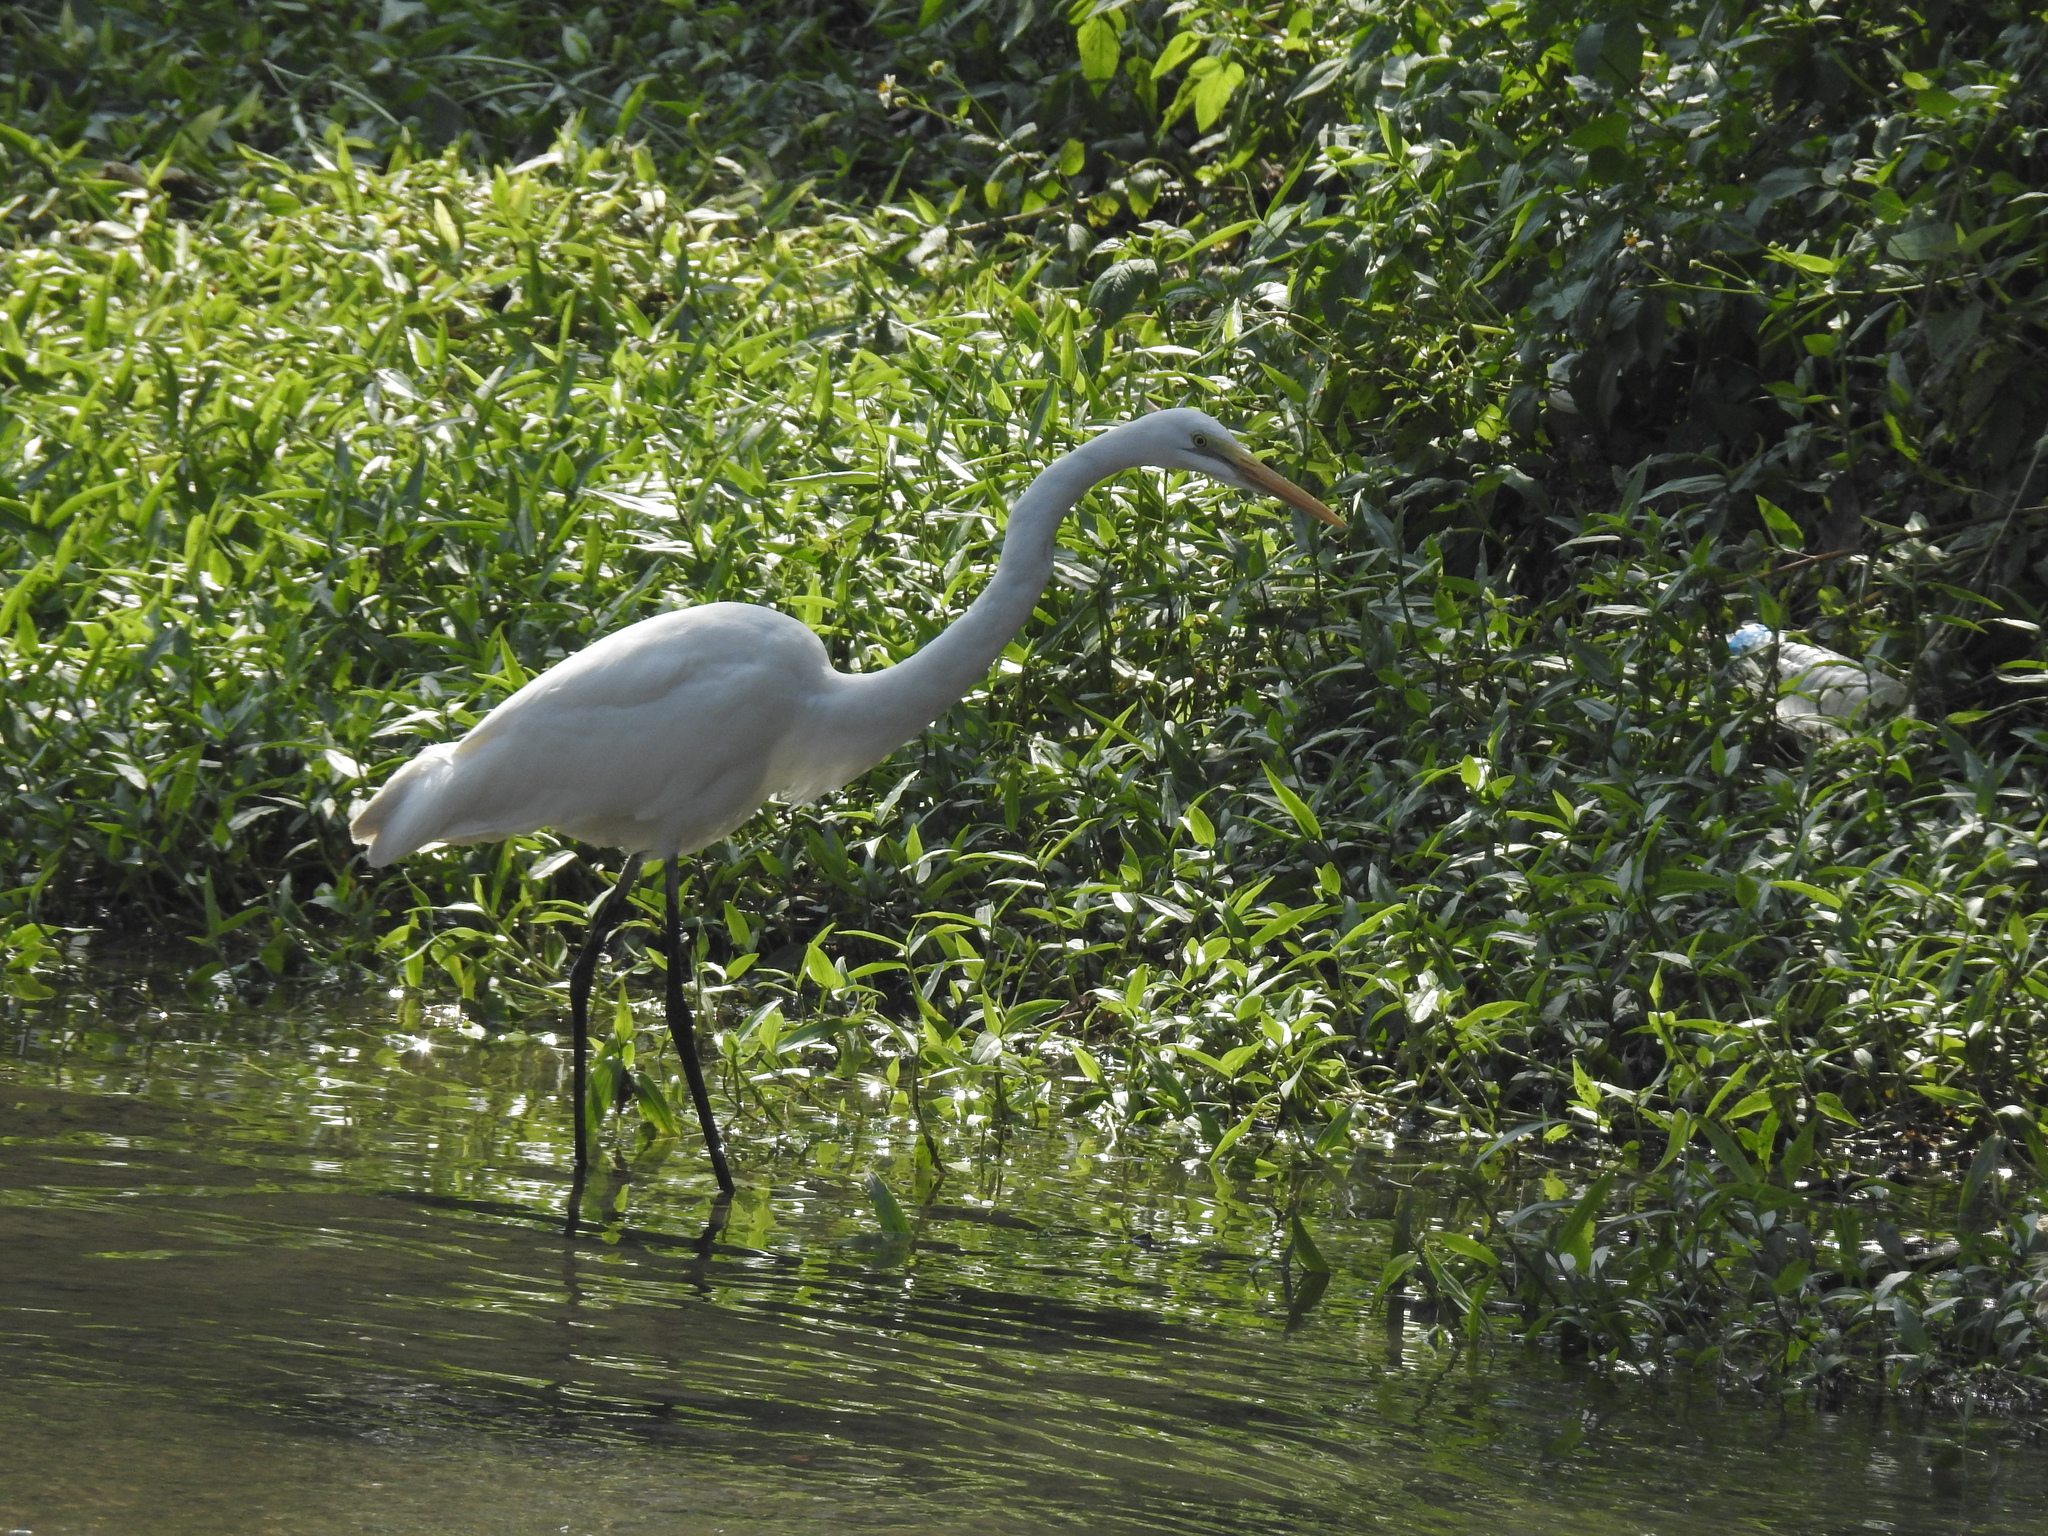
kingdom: Animalia
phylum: Chordata
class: Aves
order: Pelecaniformes
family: Ardeidae
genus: Ardea
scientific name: Ardea alba
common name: Great egret
